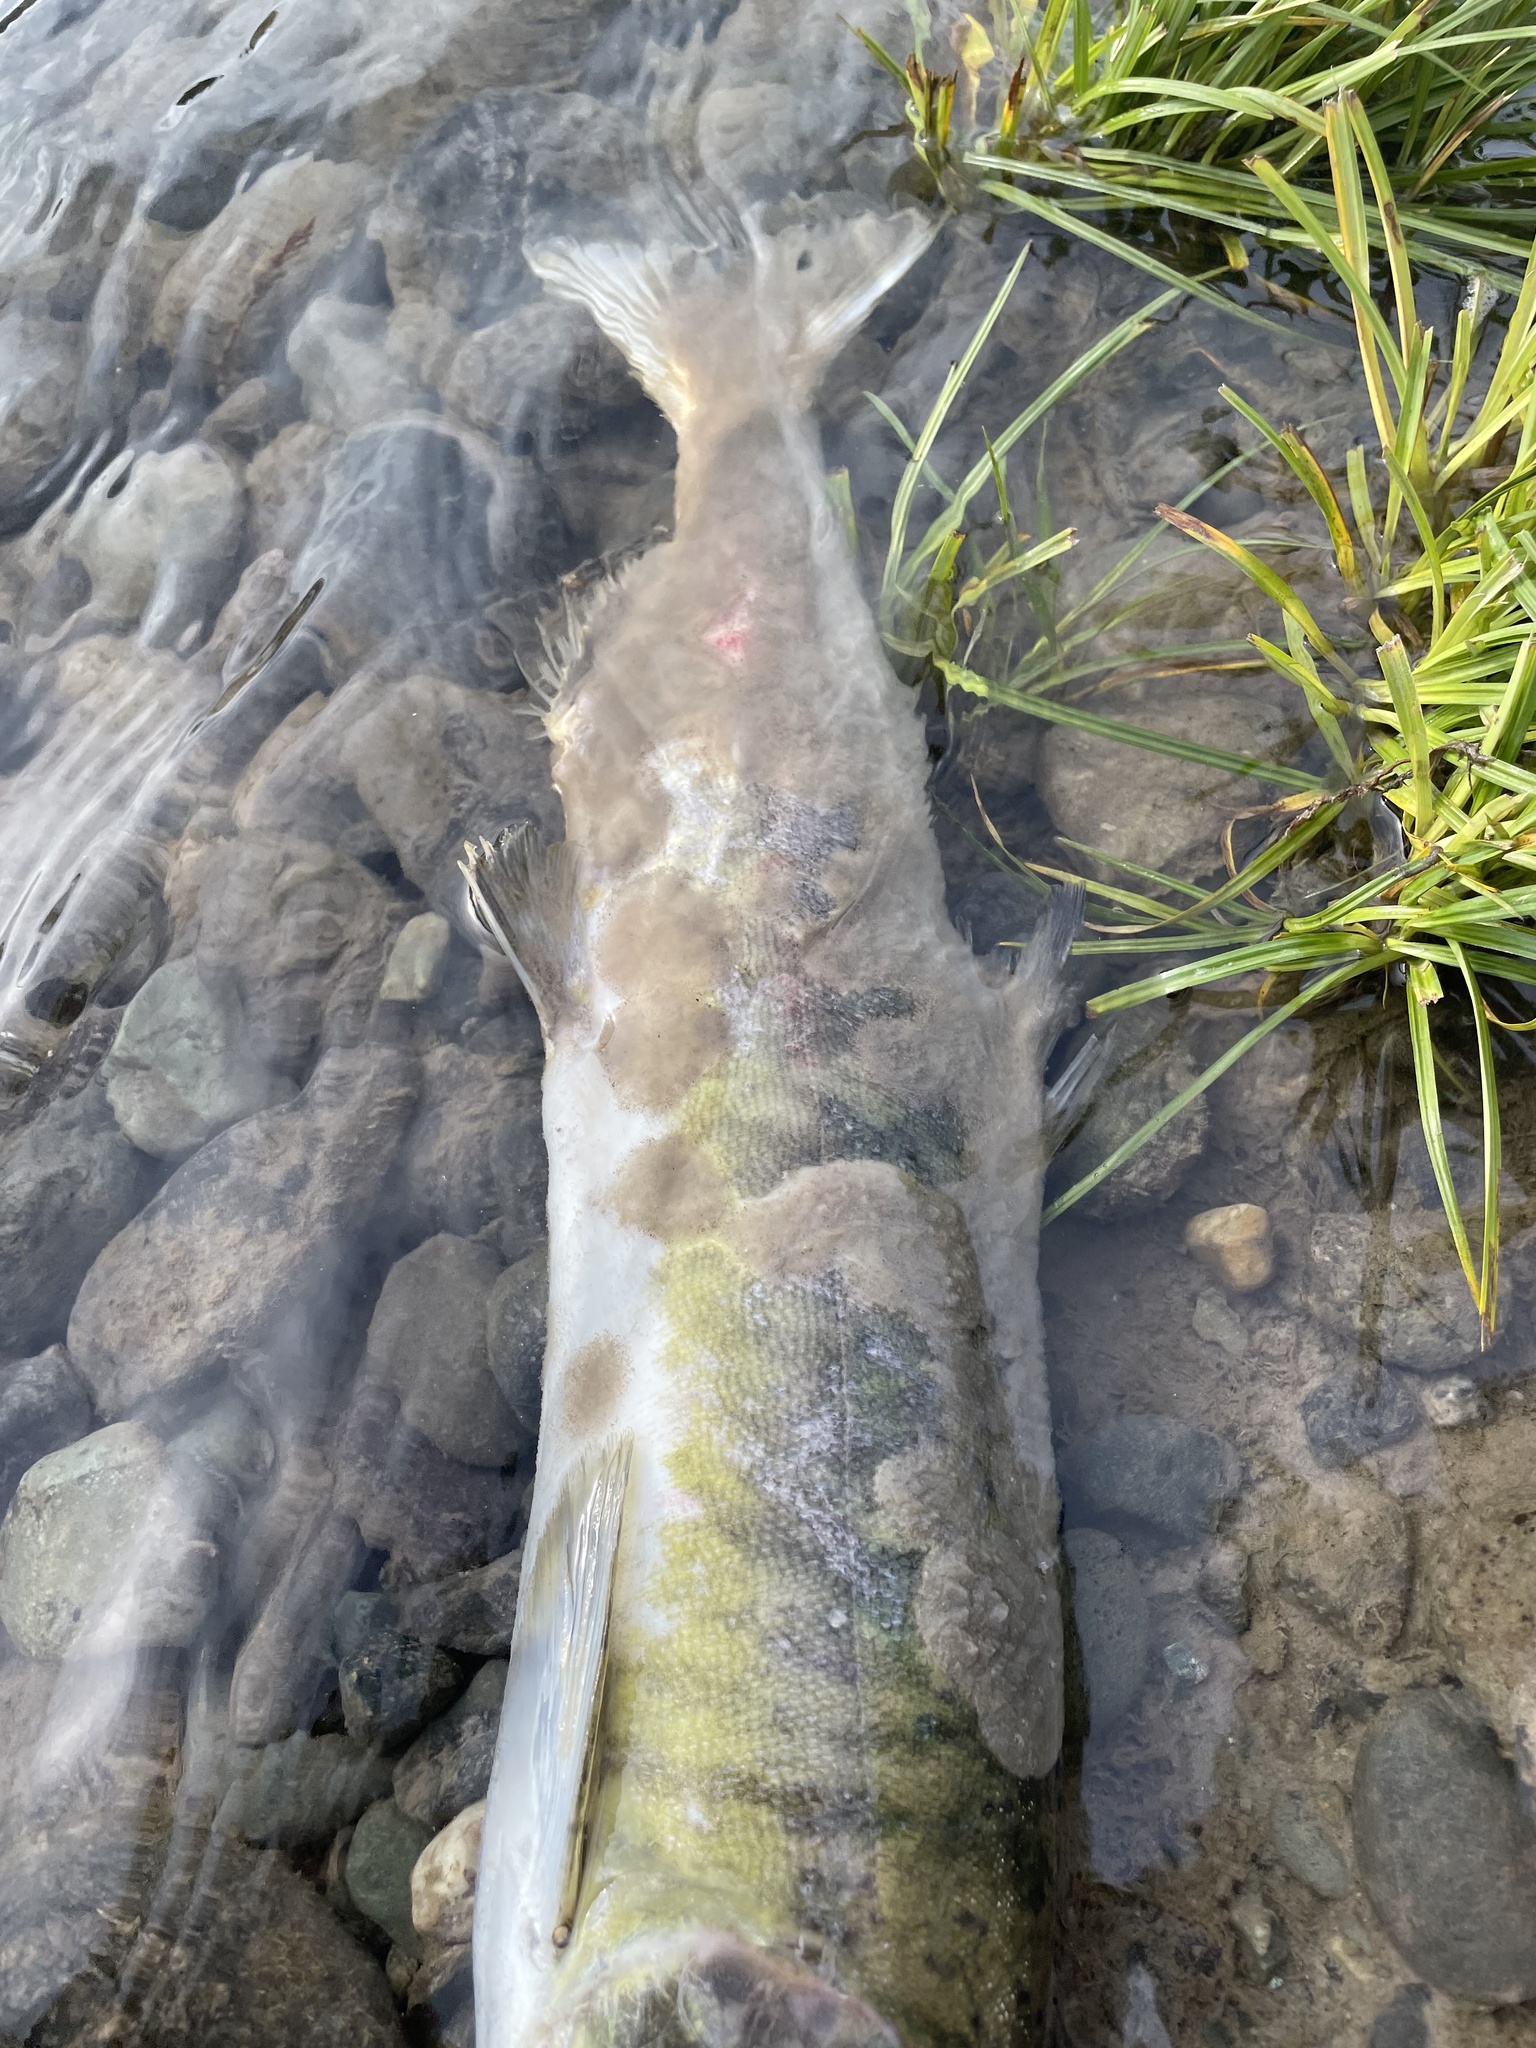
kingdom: Animalia
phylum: Chordata
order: Salmoniformes
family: Salmonidae
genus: Oncorhynchus
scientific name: Oncorhynchus keta
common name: Chum salmon
